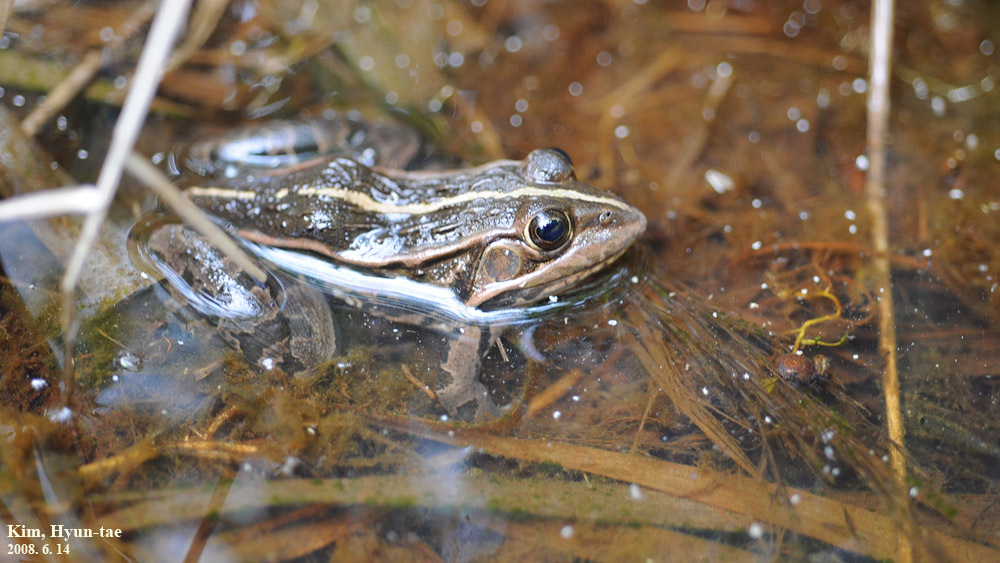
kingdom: Animalia
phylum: Chordata
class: Amphibia
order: Anura
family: Ranidae
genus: Pelophylax
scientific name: Pelophylax nigromaculatus
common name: Black-spotted pond frog
